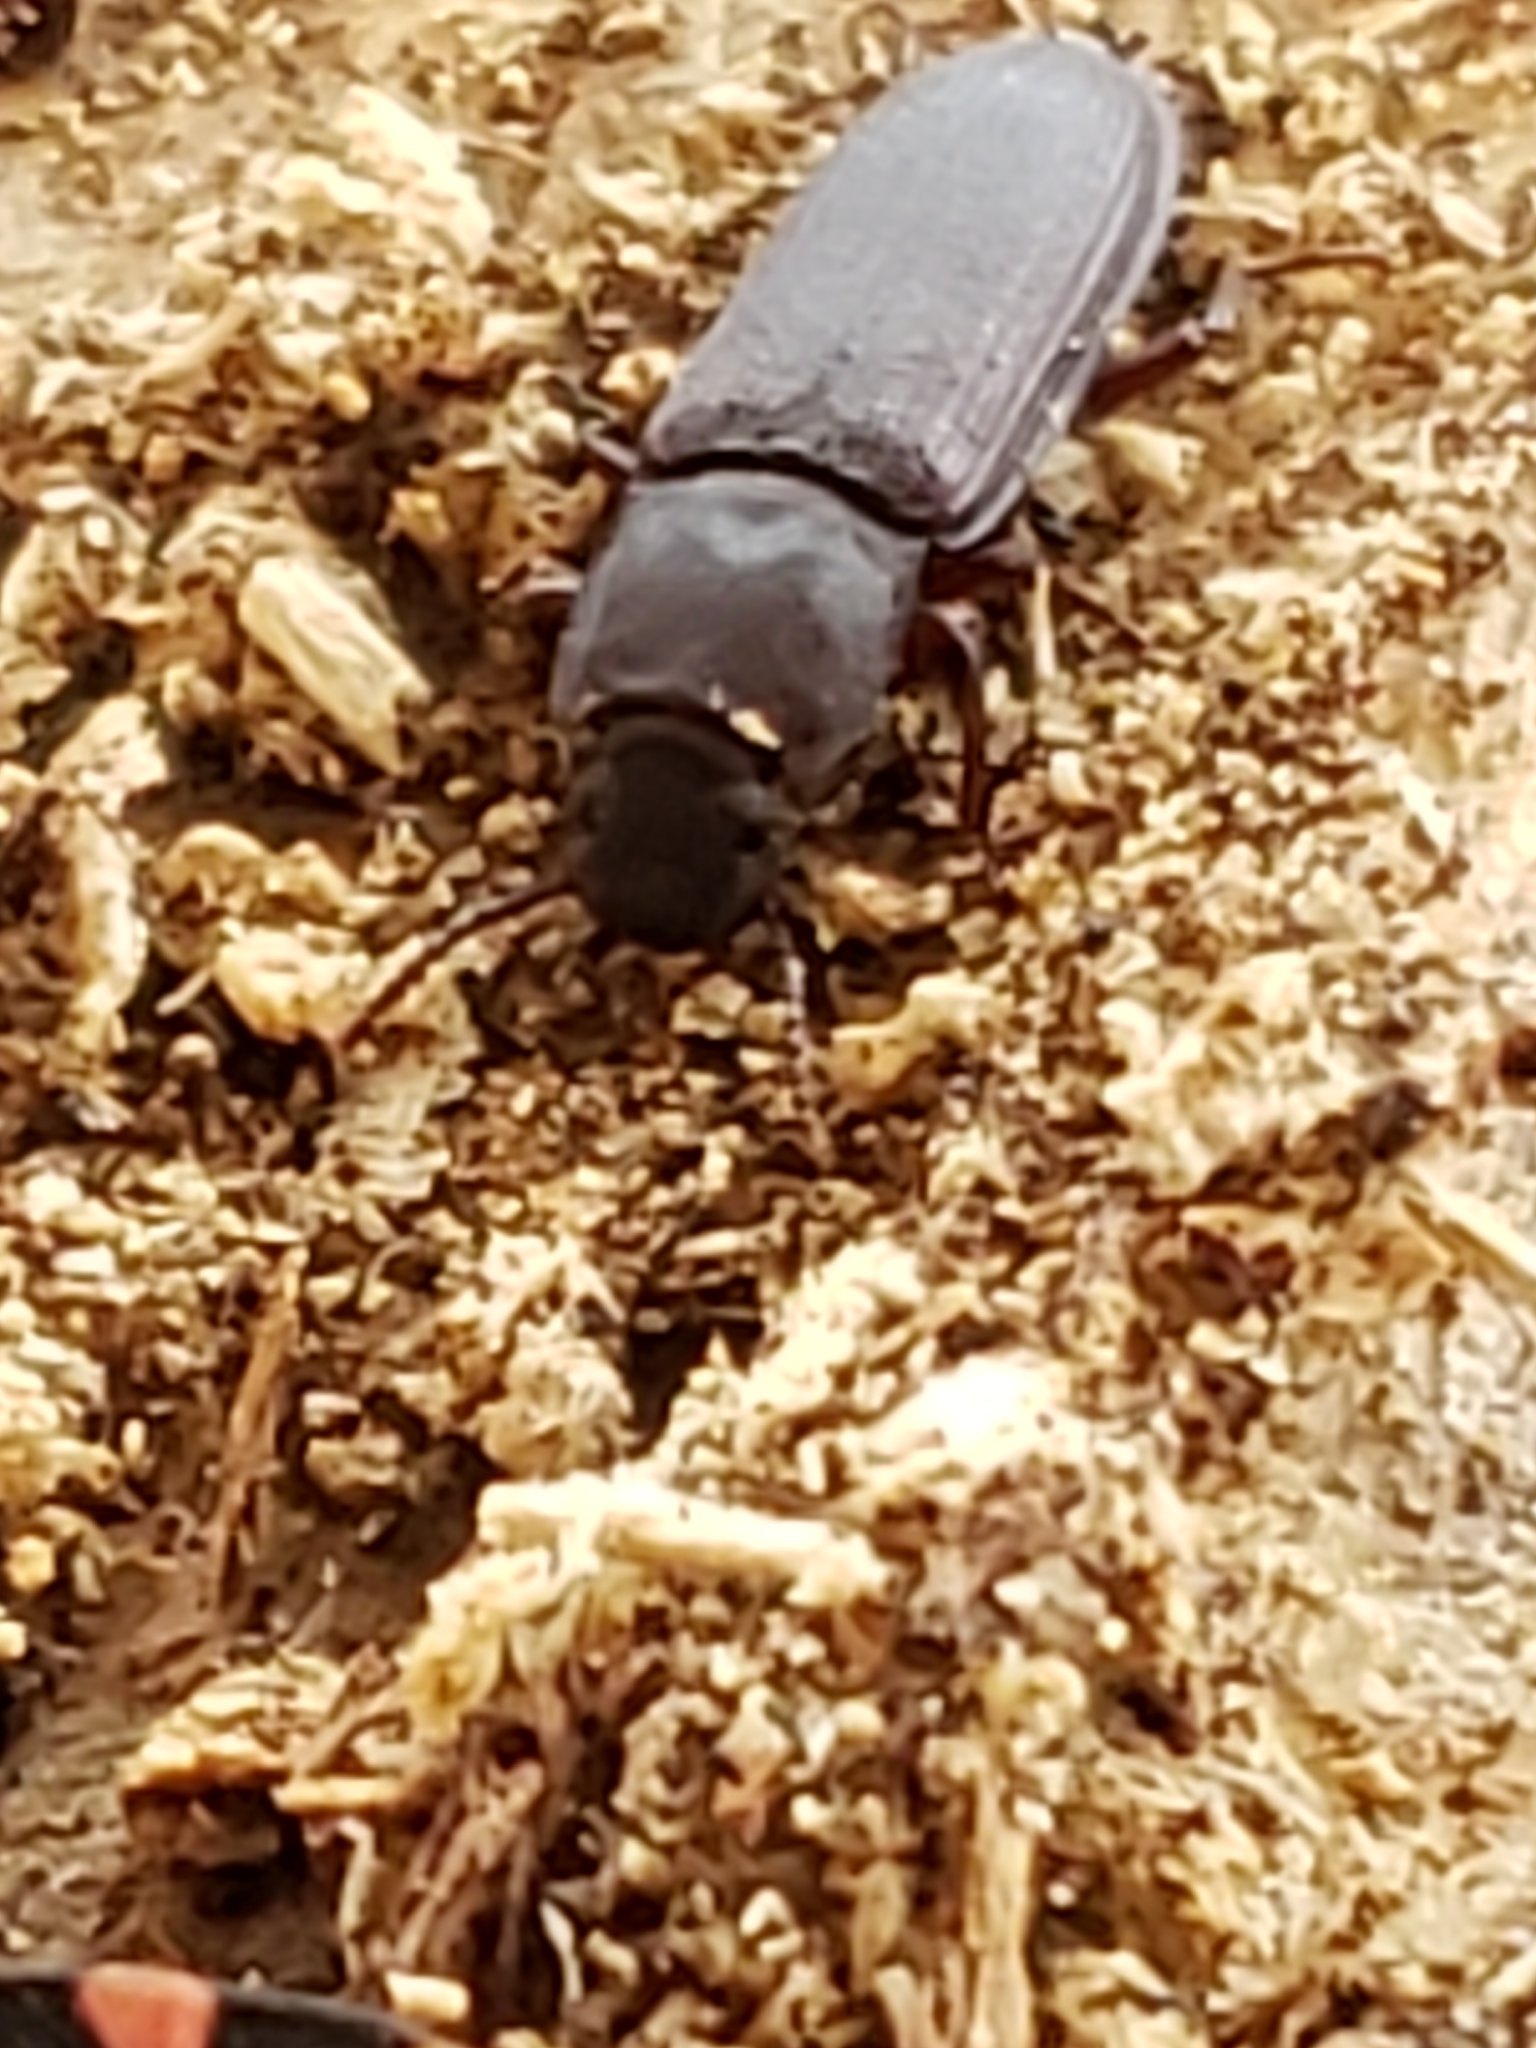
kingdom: Animalia
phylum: Arthropoda
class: Insecta
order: Coleoptera
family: Tenebrionidae
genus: Idiobates
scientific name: Idiobates castaneus
